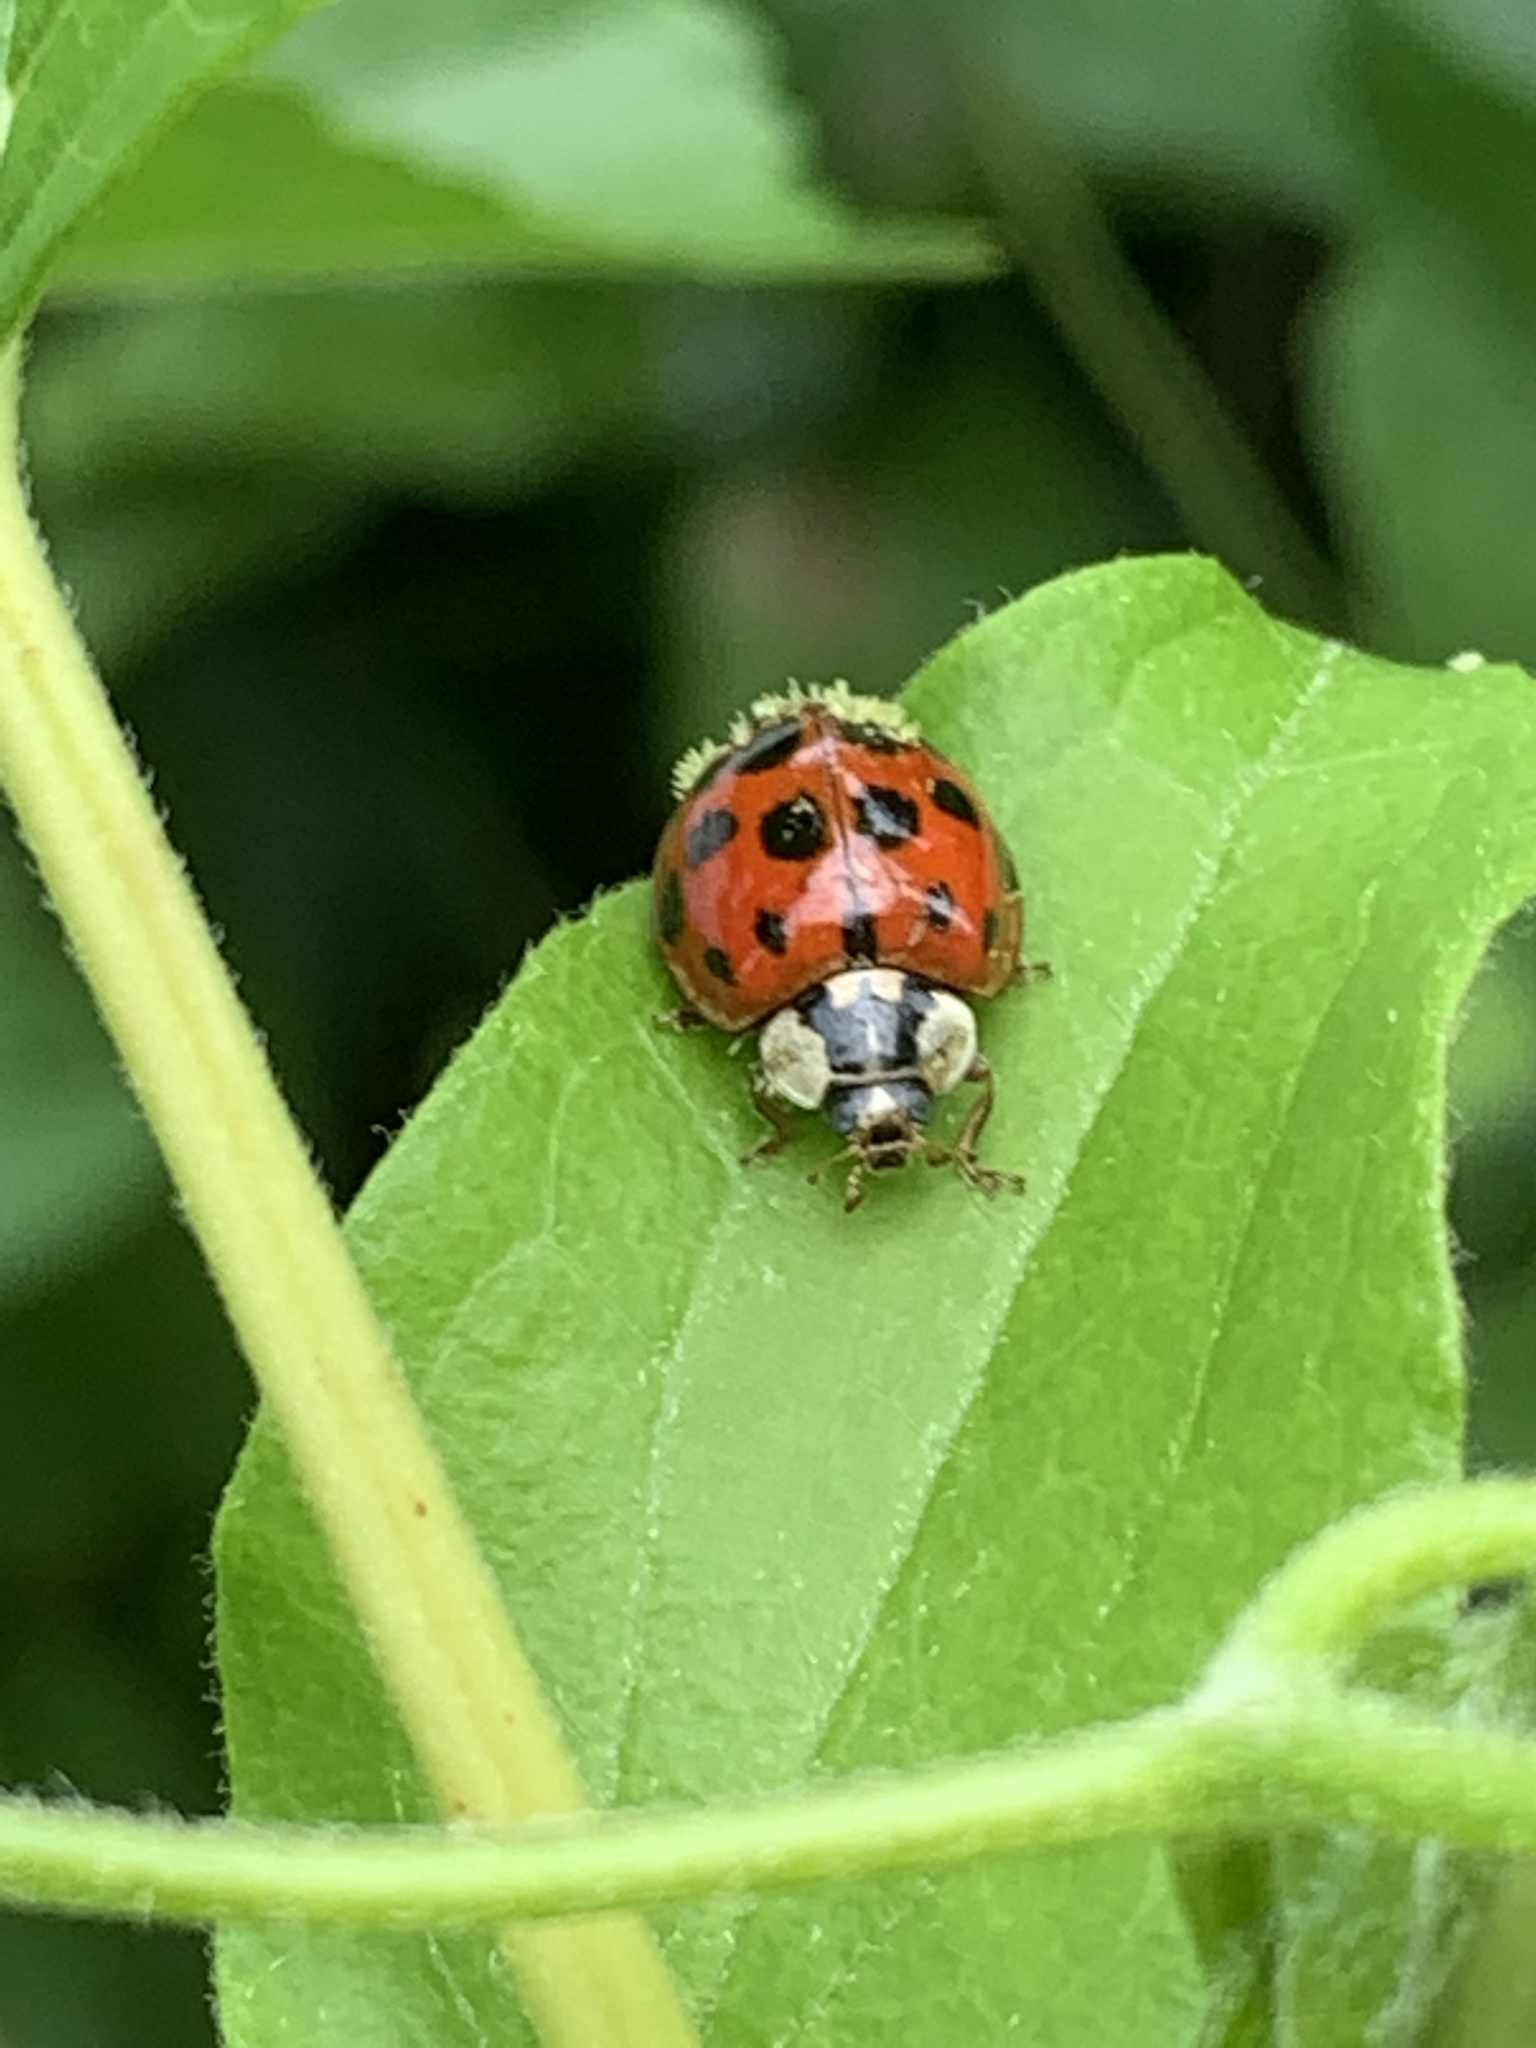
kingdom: Animalia
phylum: Arthropoda
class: Insecta
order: Coleoptera
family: Coccinellidae
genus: Harmonia
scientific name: Harmonia axyridis
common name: Harlequin ladybird
